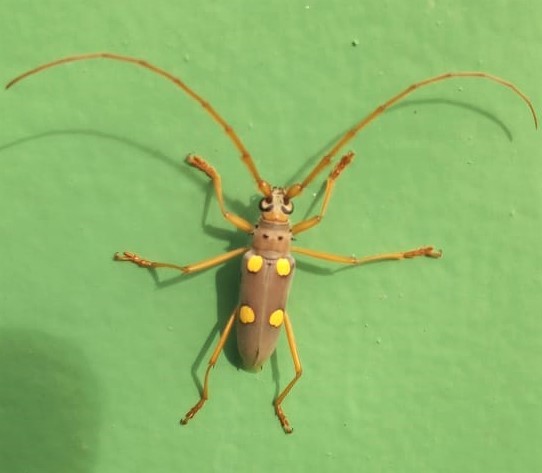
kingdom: Animalia
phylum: Arthropoda
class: Insecta
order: Coleoptera
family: Cerambycidae
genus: Eburia
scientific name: Eburia pedestris
